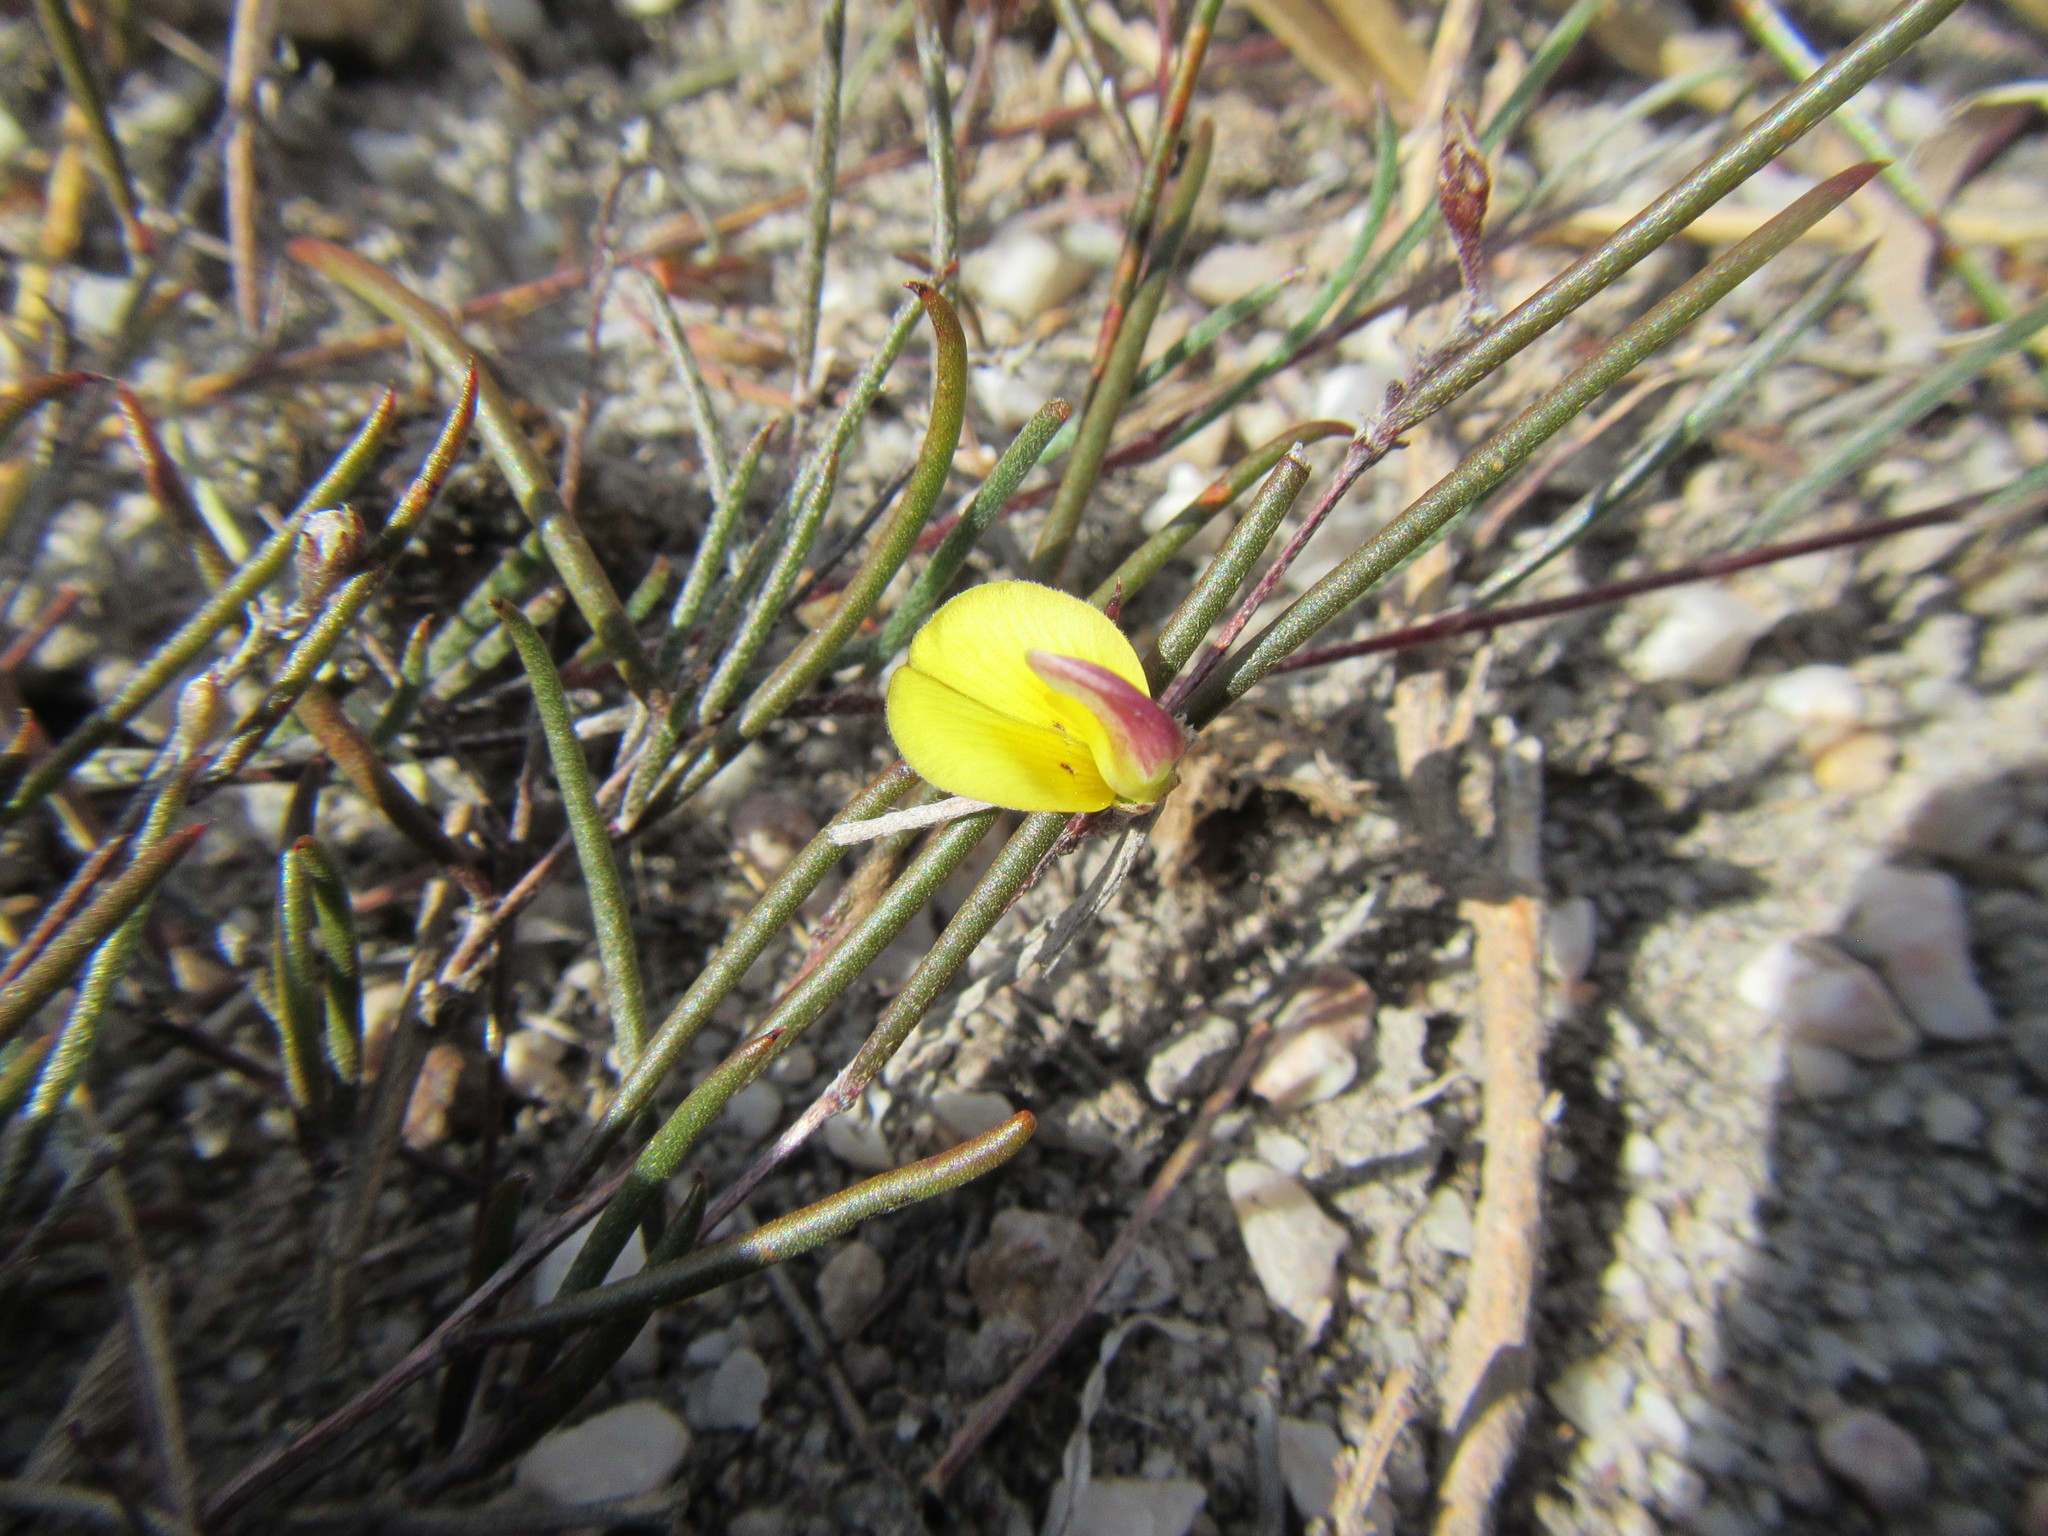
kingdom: Plantae
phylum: Tracheophyta
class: Magnoliopsida
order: Fabales
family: Fabaceae
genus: Aspalathus
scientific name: Aspalathus lebeckioides
